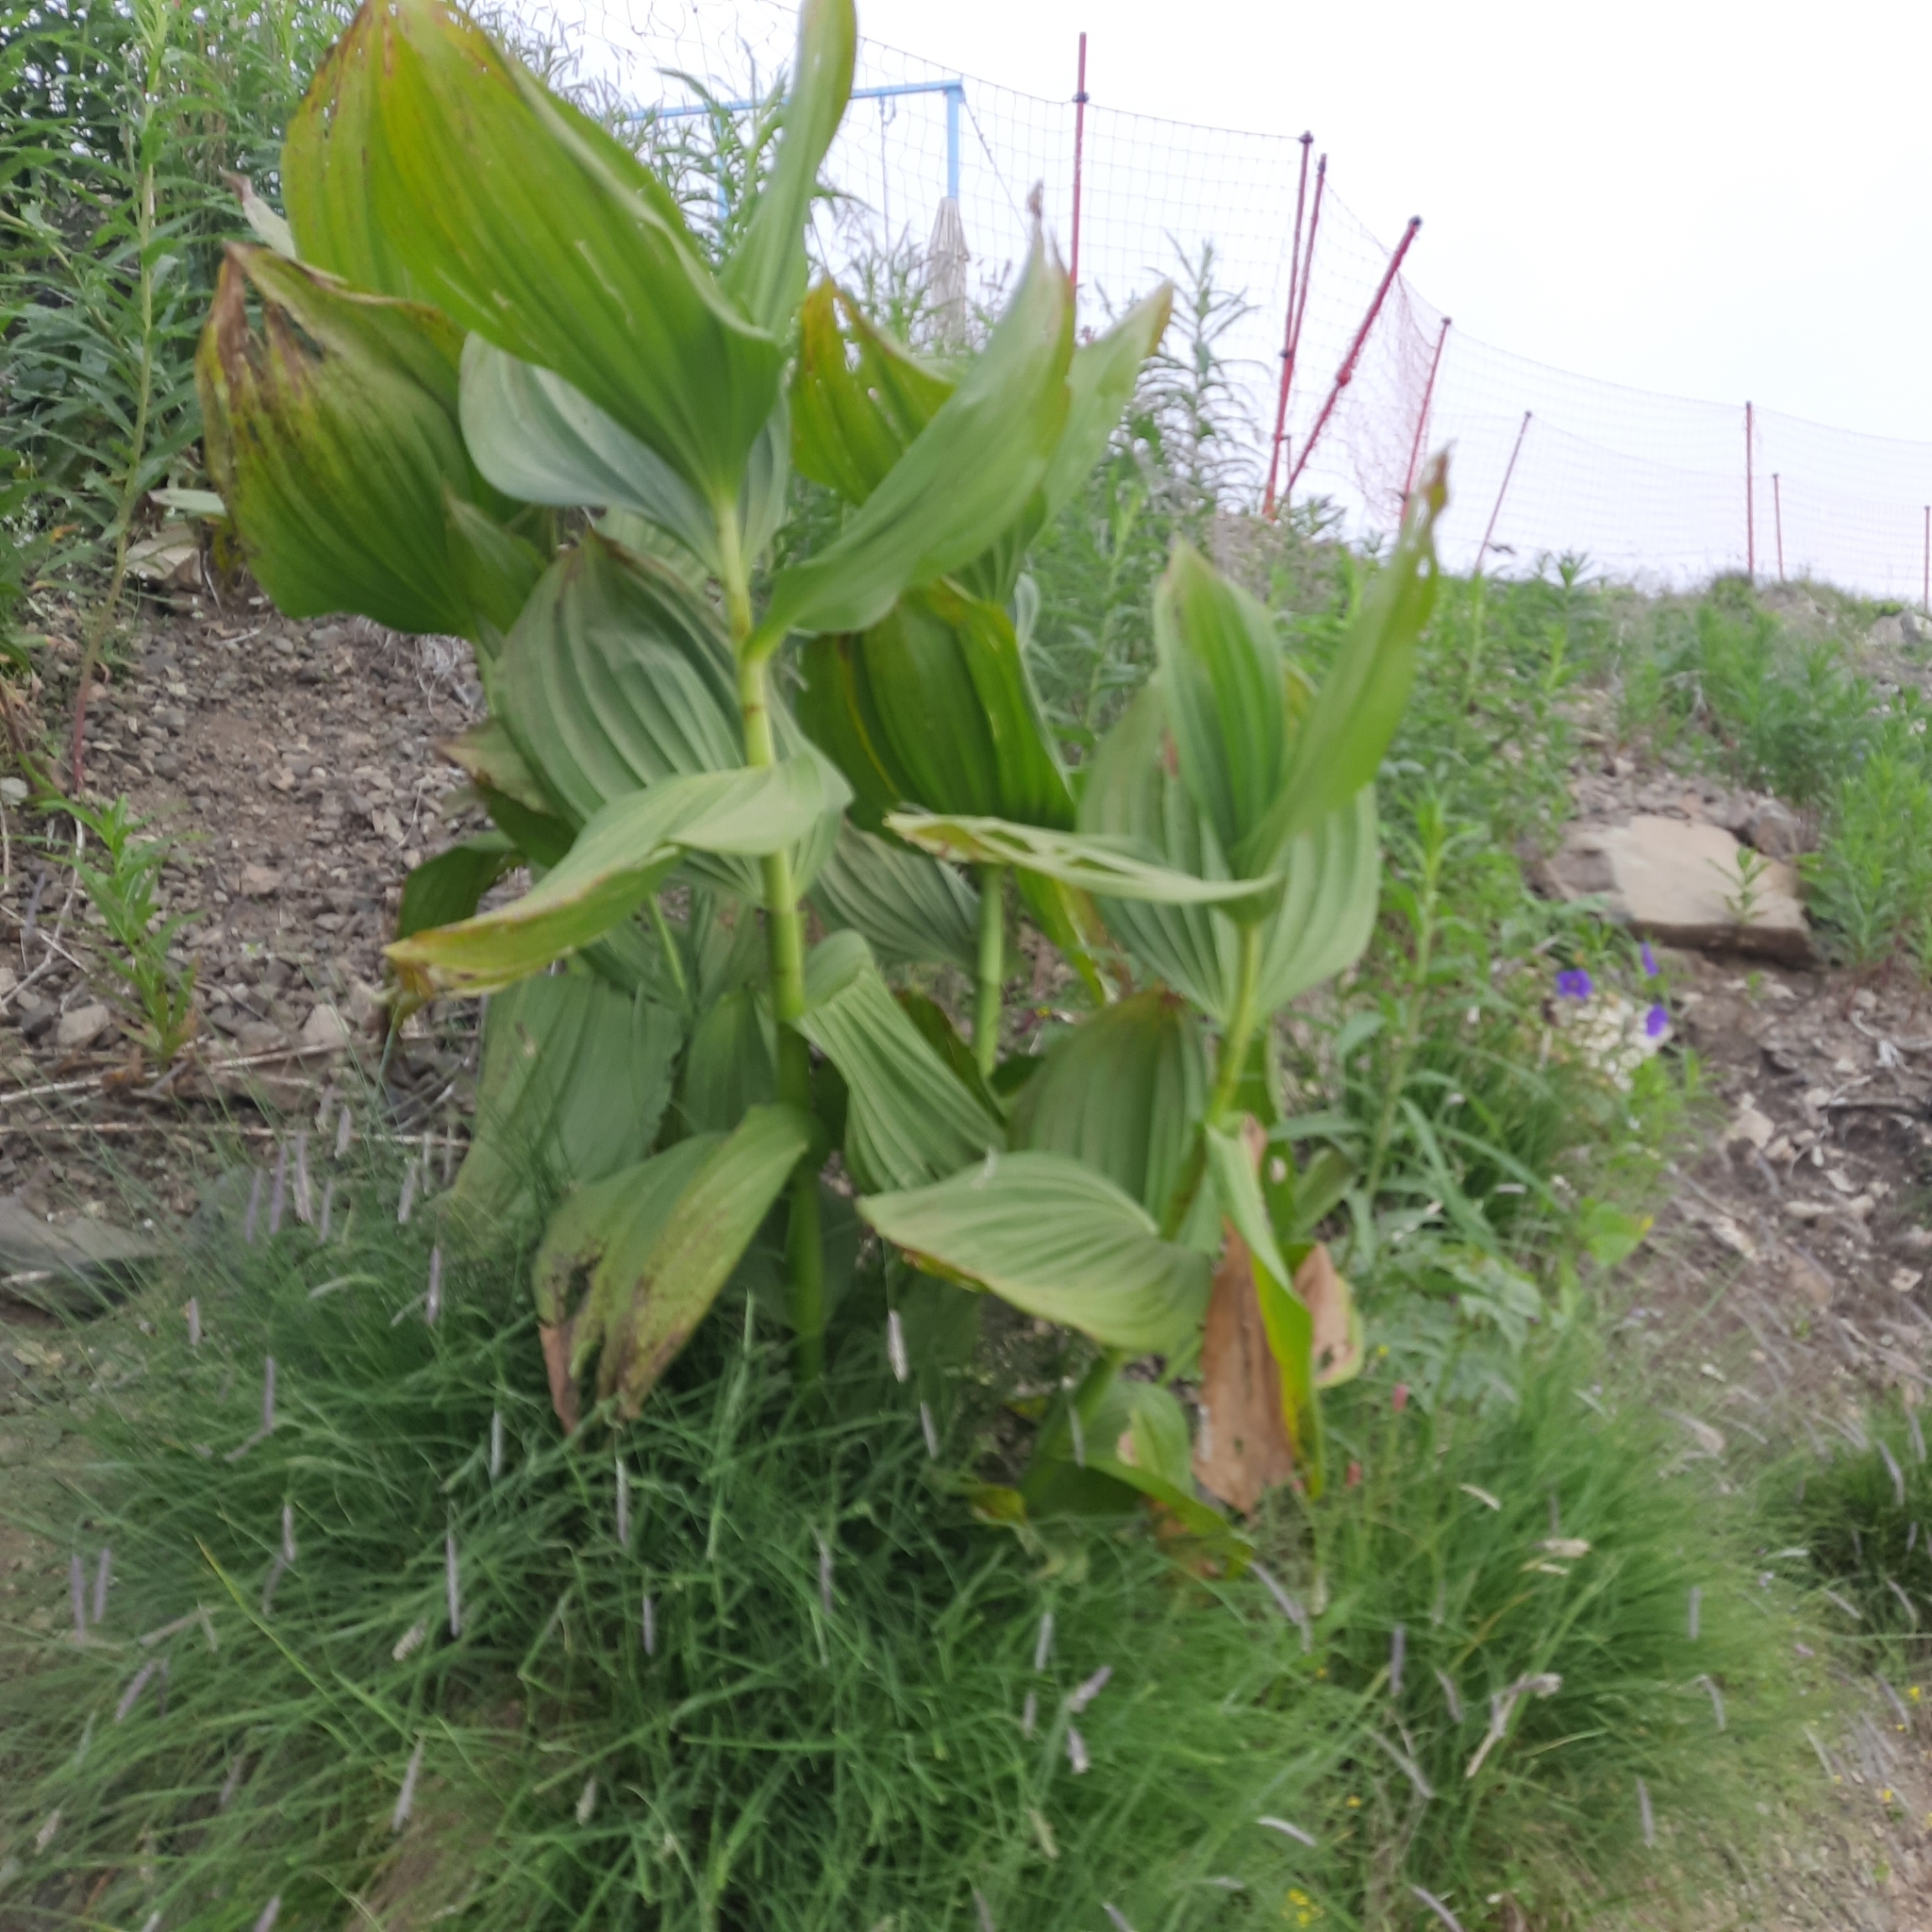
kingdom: Plantae
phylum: Tracheophyta
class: Liliopsida
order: Liliales
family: Melanthiaceae
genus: Veratrum
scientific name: Veratrum lobelianum
